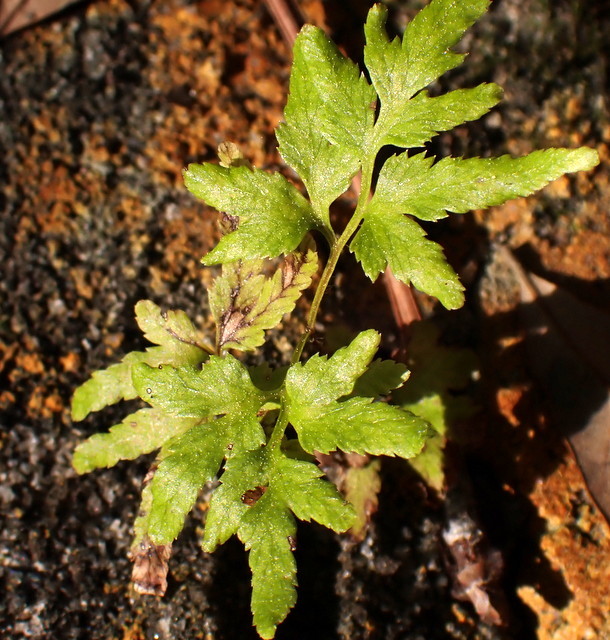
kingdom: Plantae
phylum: Tracheophyta
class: Polypodiopsida
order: Schizaeales
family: Lygodiaceae
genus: Lygodium
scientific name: Lygodium japonicum
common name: Japanese climbing fern
